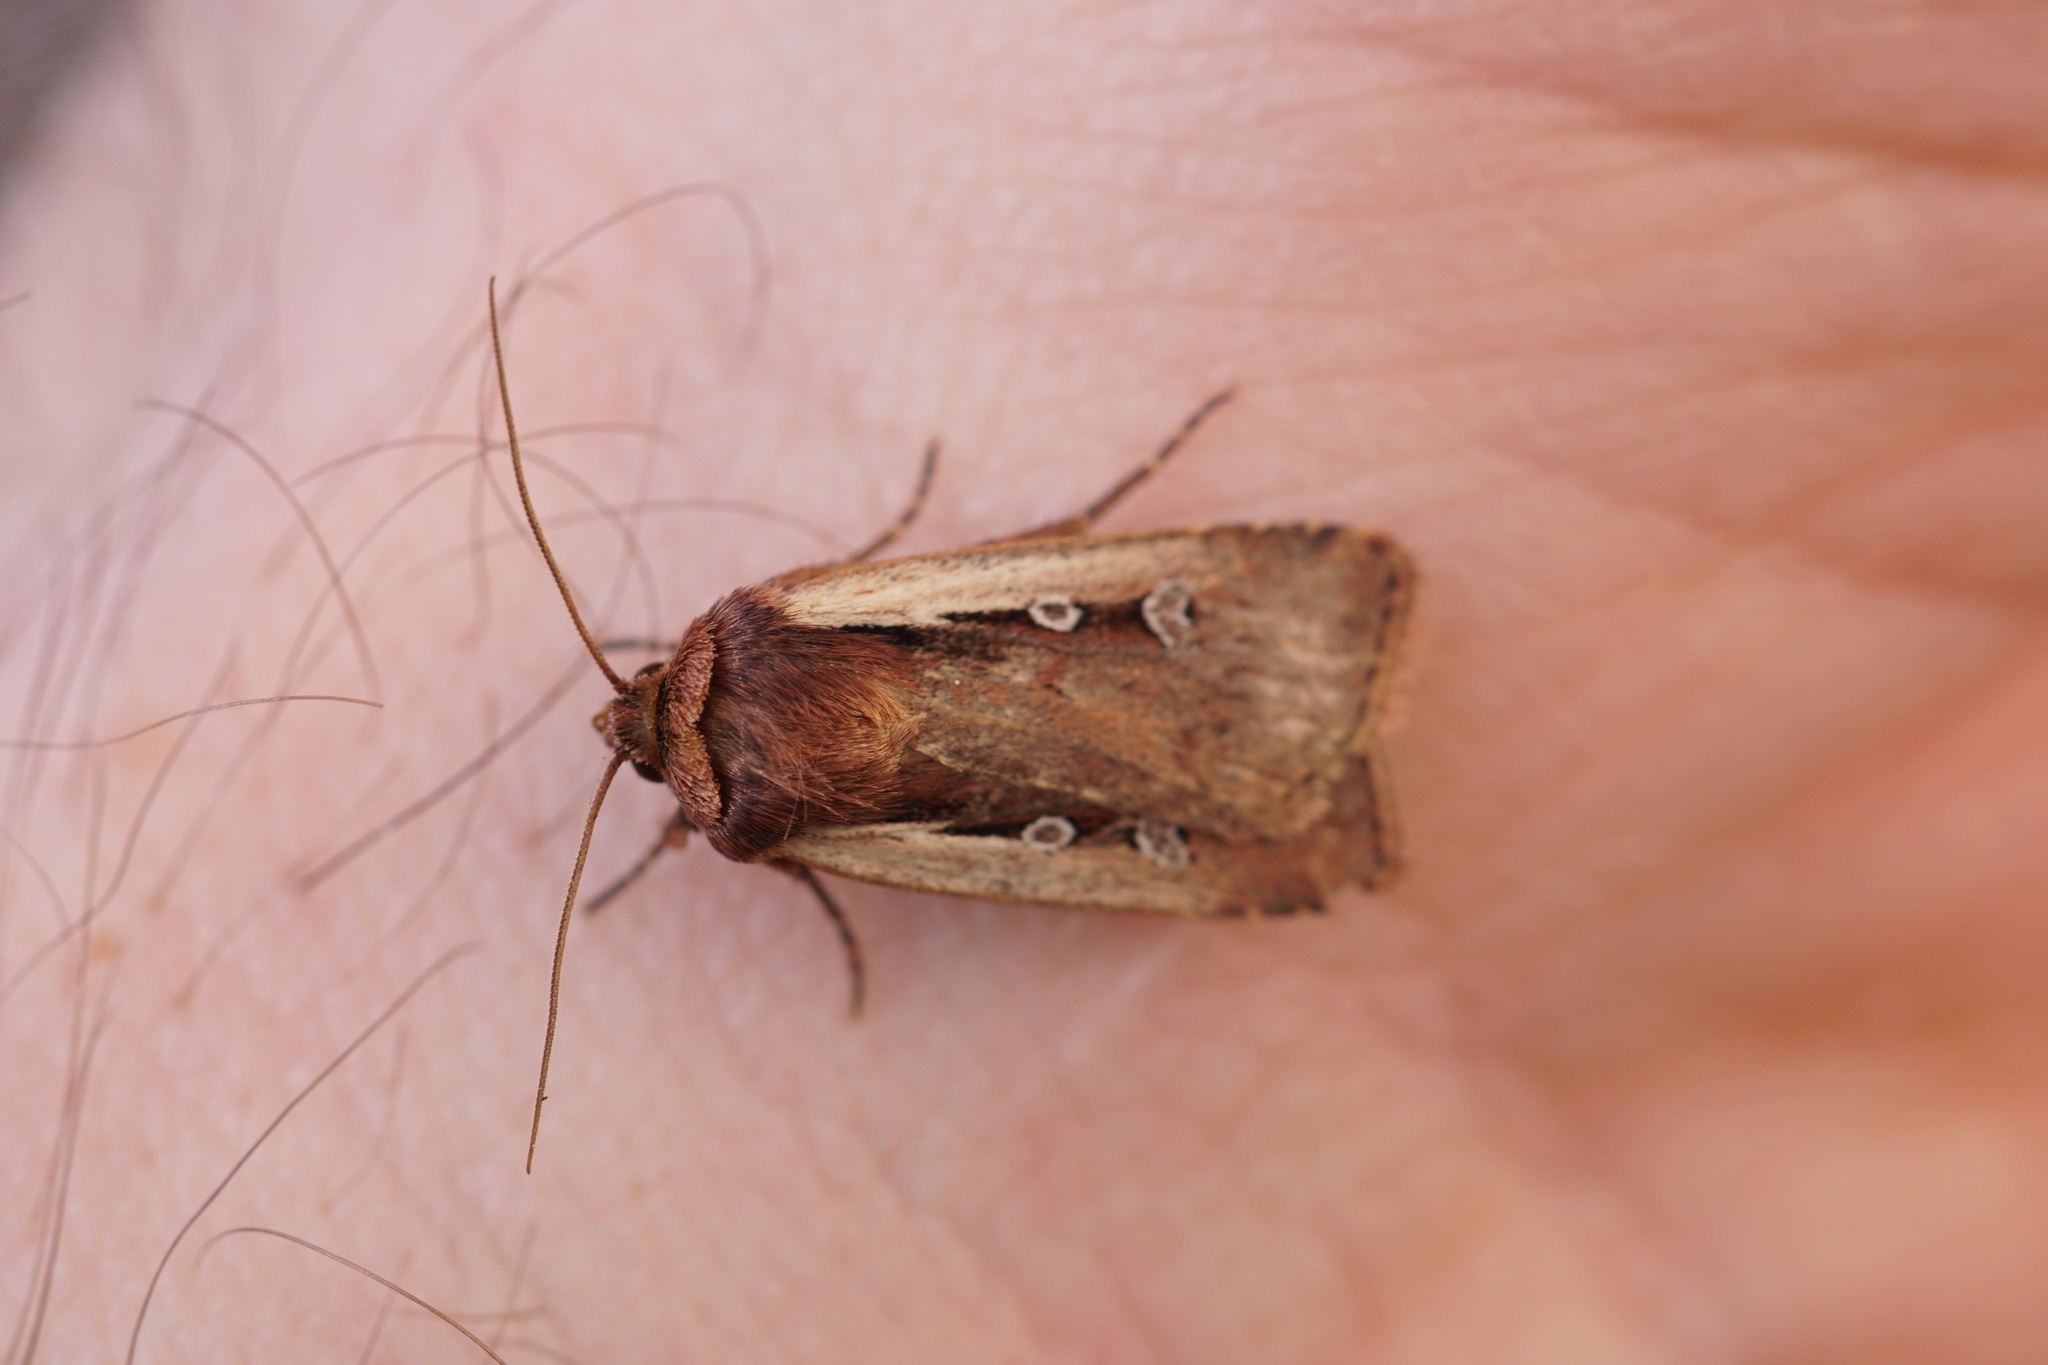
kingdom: Animalia
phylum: Arthropoda
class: Insecta
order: Lepidoptera
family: Noctuidae
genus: Ochropleura
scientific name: Ochropleura plecta
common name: Flame shoulder
